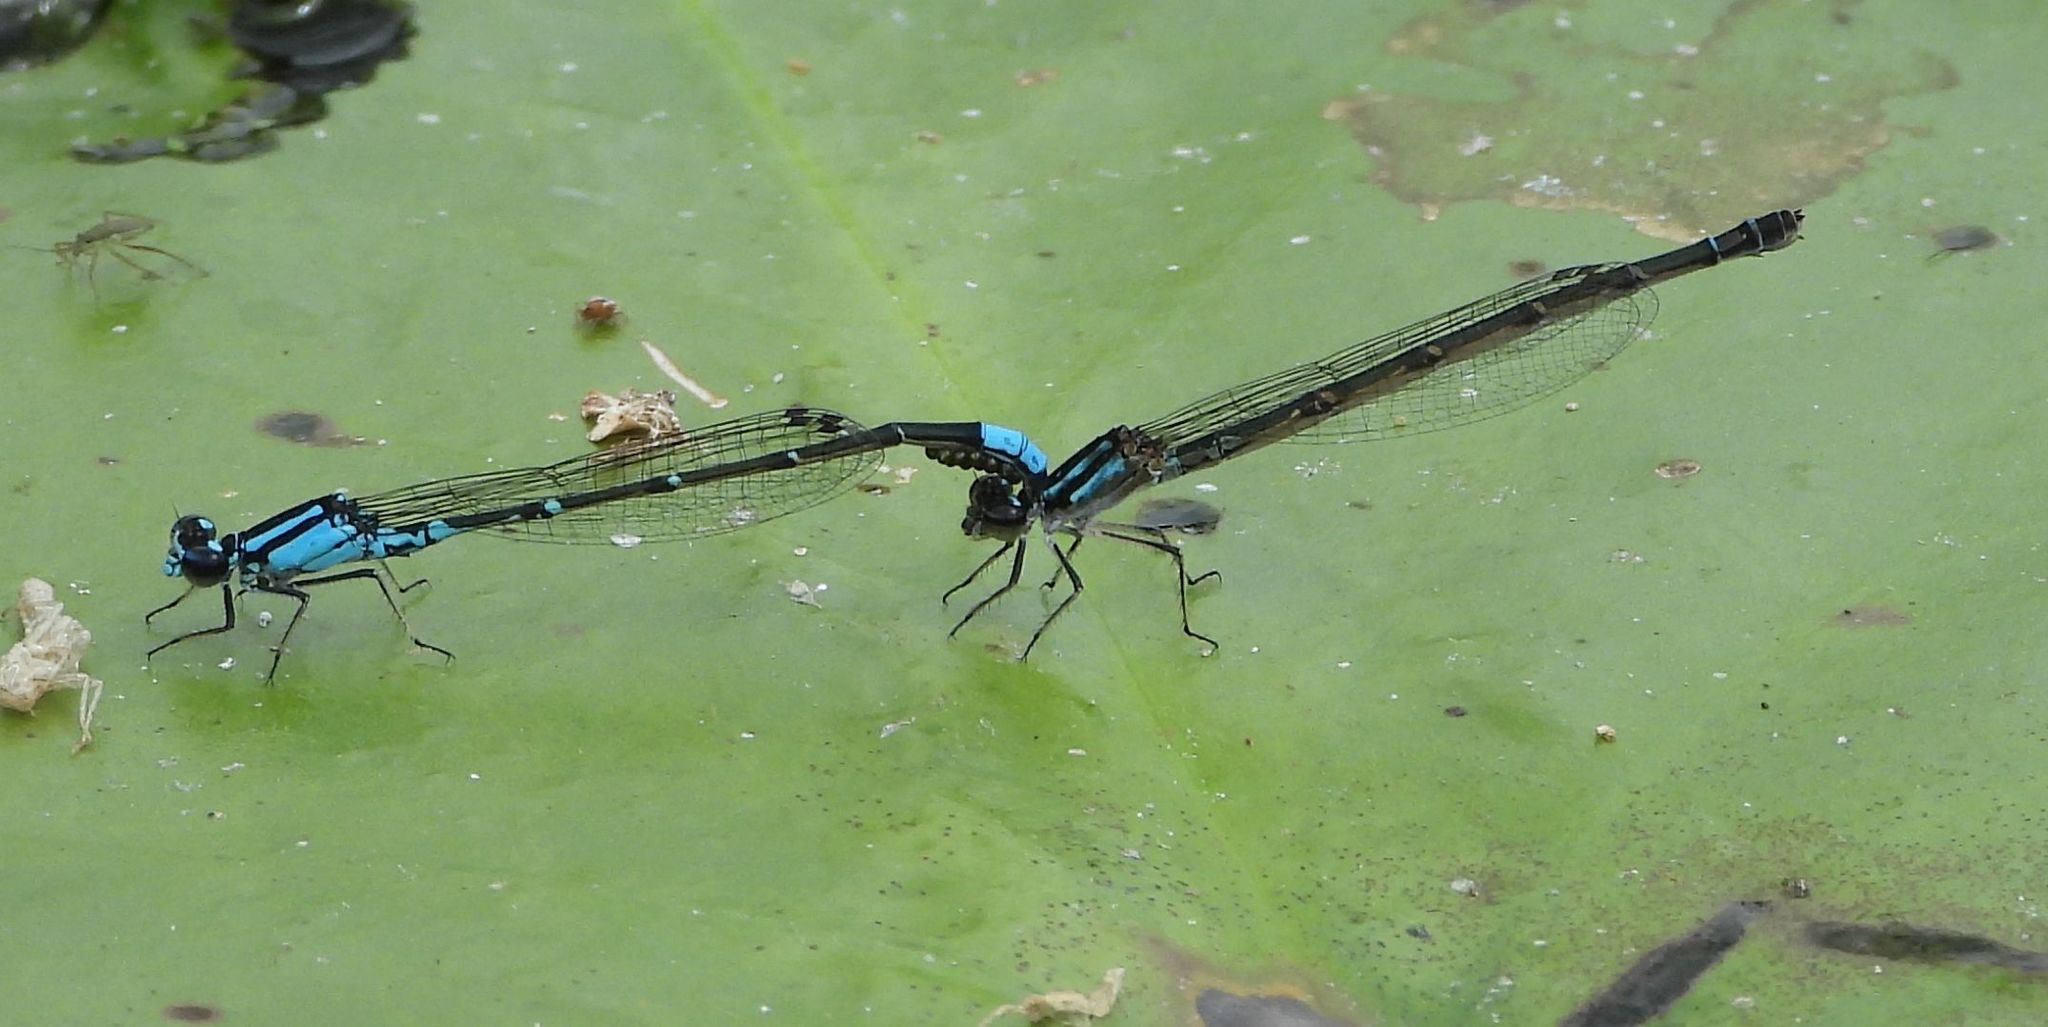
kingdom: Animalia
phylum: Arthropoda
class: Insecta
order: Odonata
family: Coenagrionidae
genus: Enallagma
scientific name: Enallagma geminatum
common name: Skimming bluet
